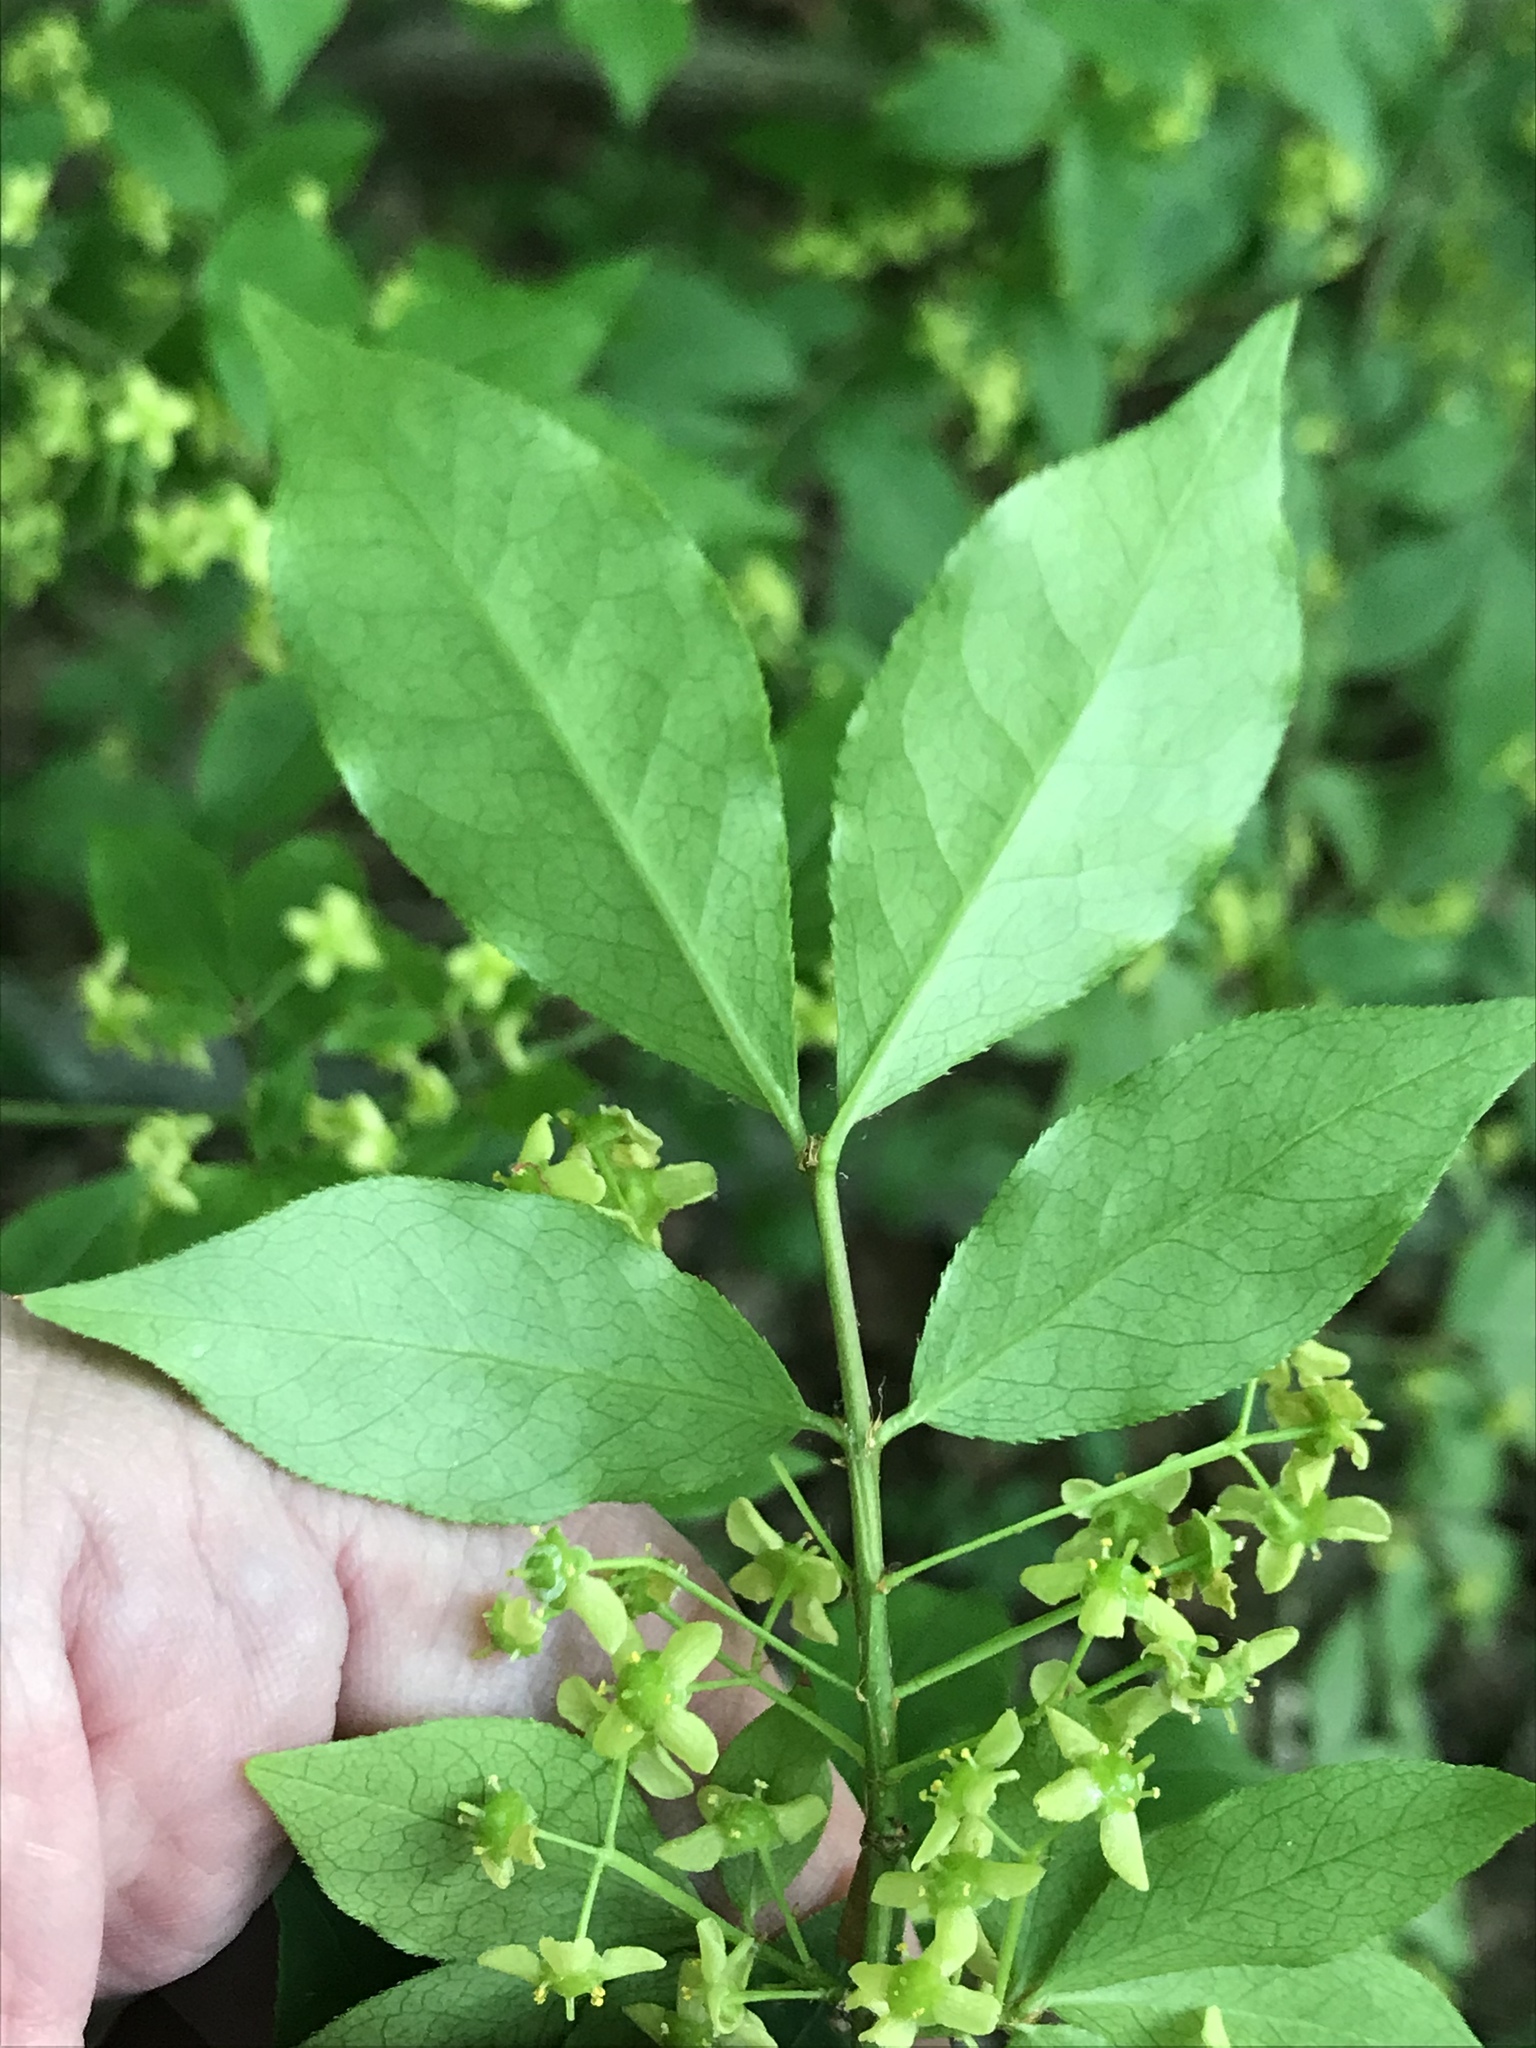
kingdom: Plantae
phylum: Tracheophyta
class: Magnoliopsida
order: Celastrales
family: Celastraceae
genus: Euonymus
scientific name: Euonymus alatus
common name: Winged euonymus
